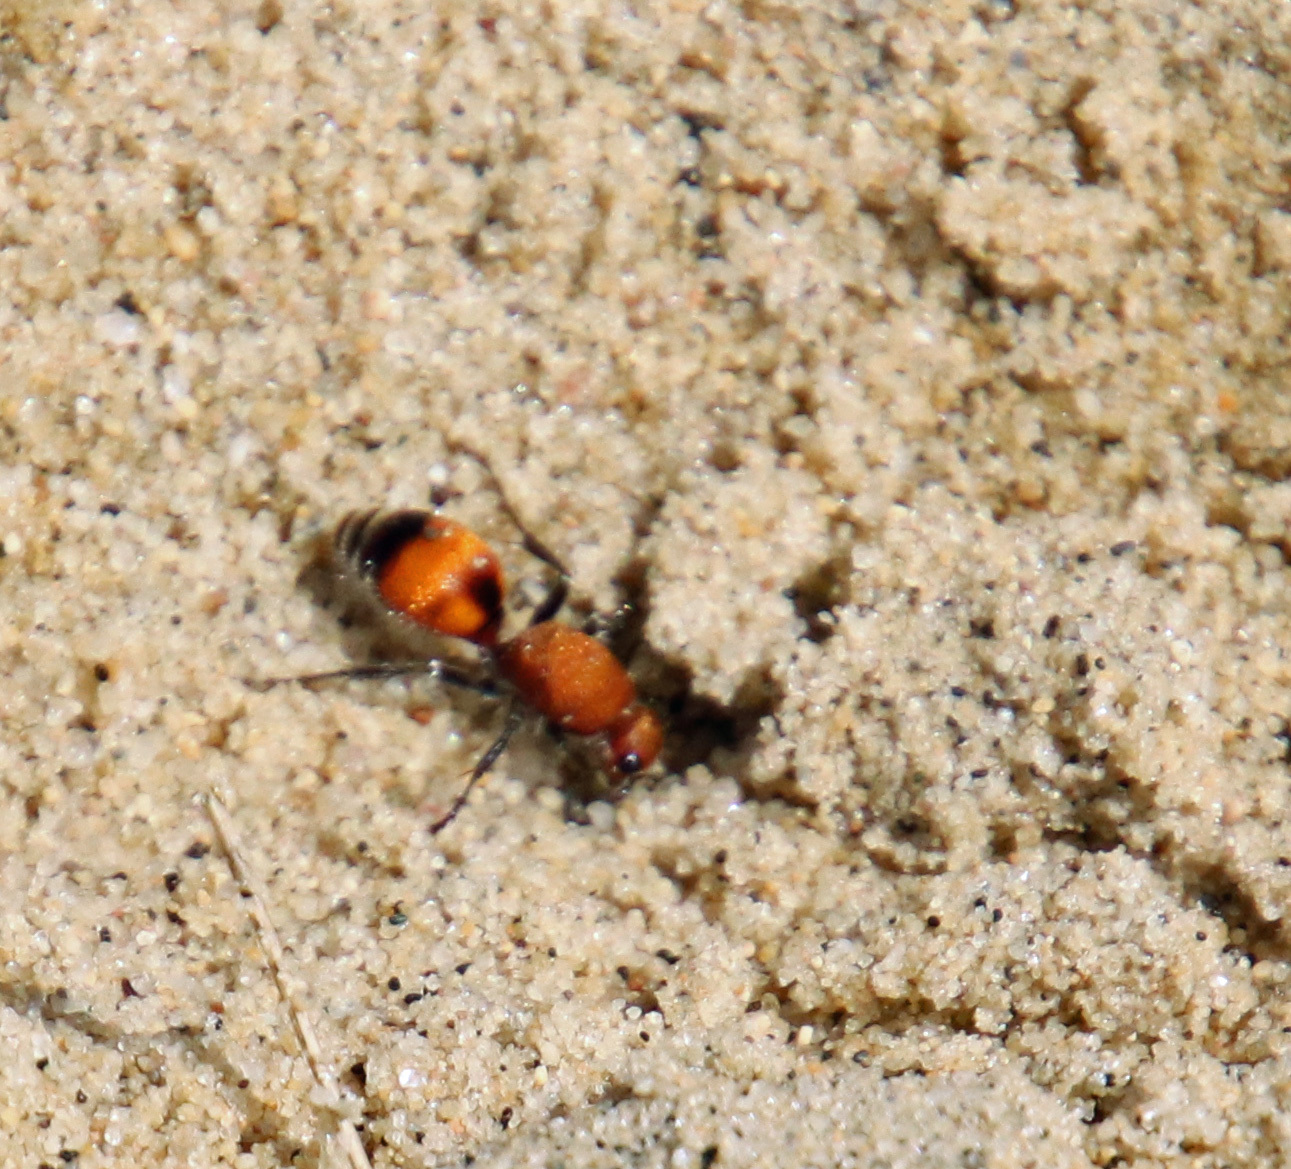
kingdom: Animalia
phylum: Arthropoda
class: Insecta
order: Hymenoptera
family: Mutillidae
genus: Dasymutilla
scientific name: Dasymutilla
